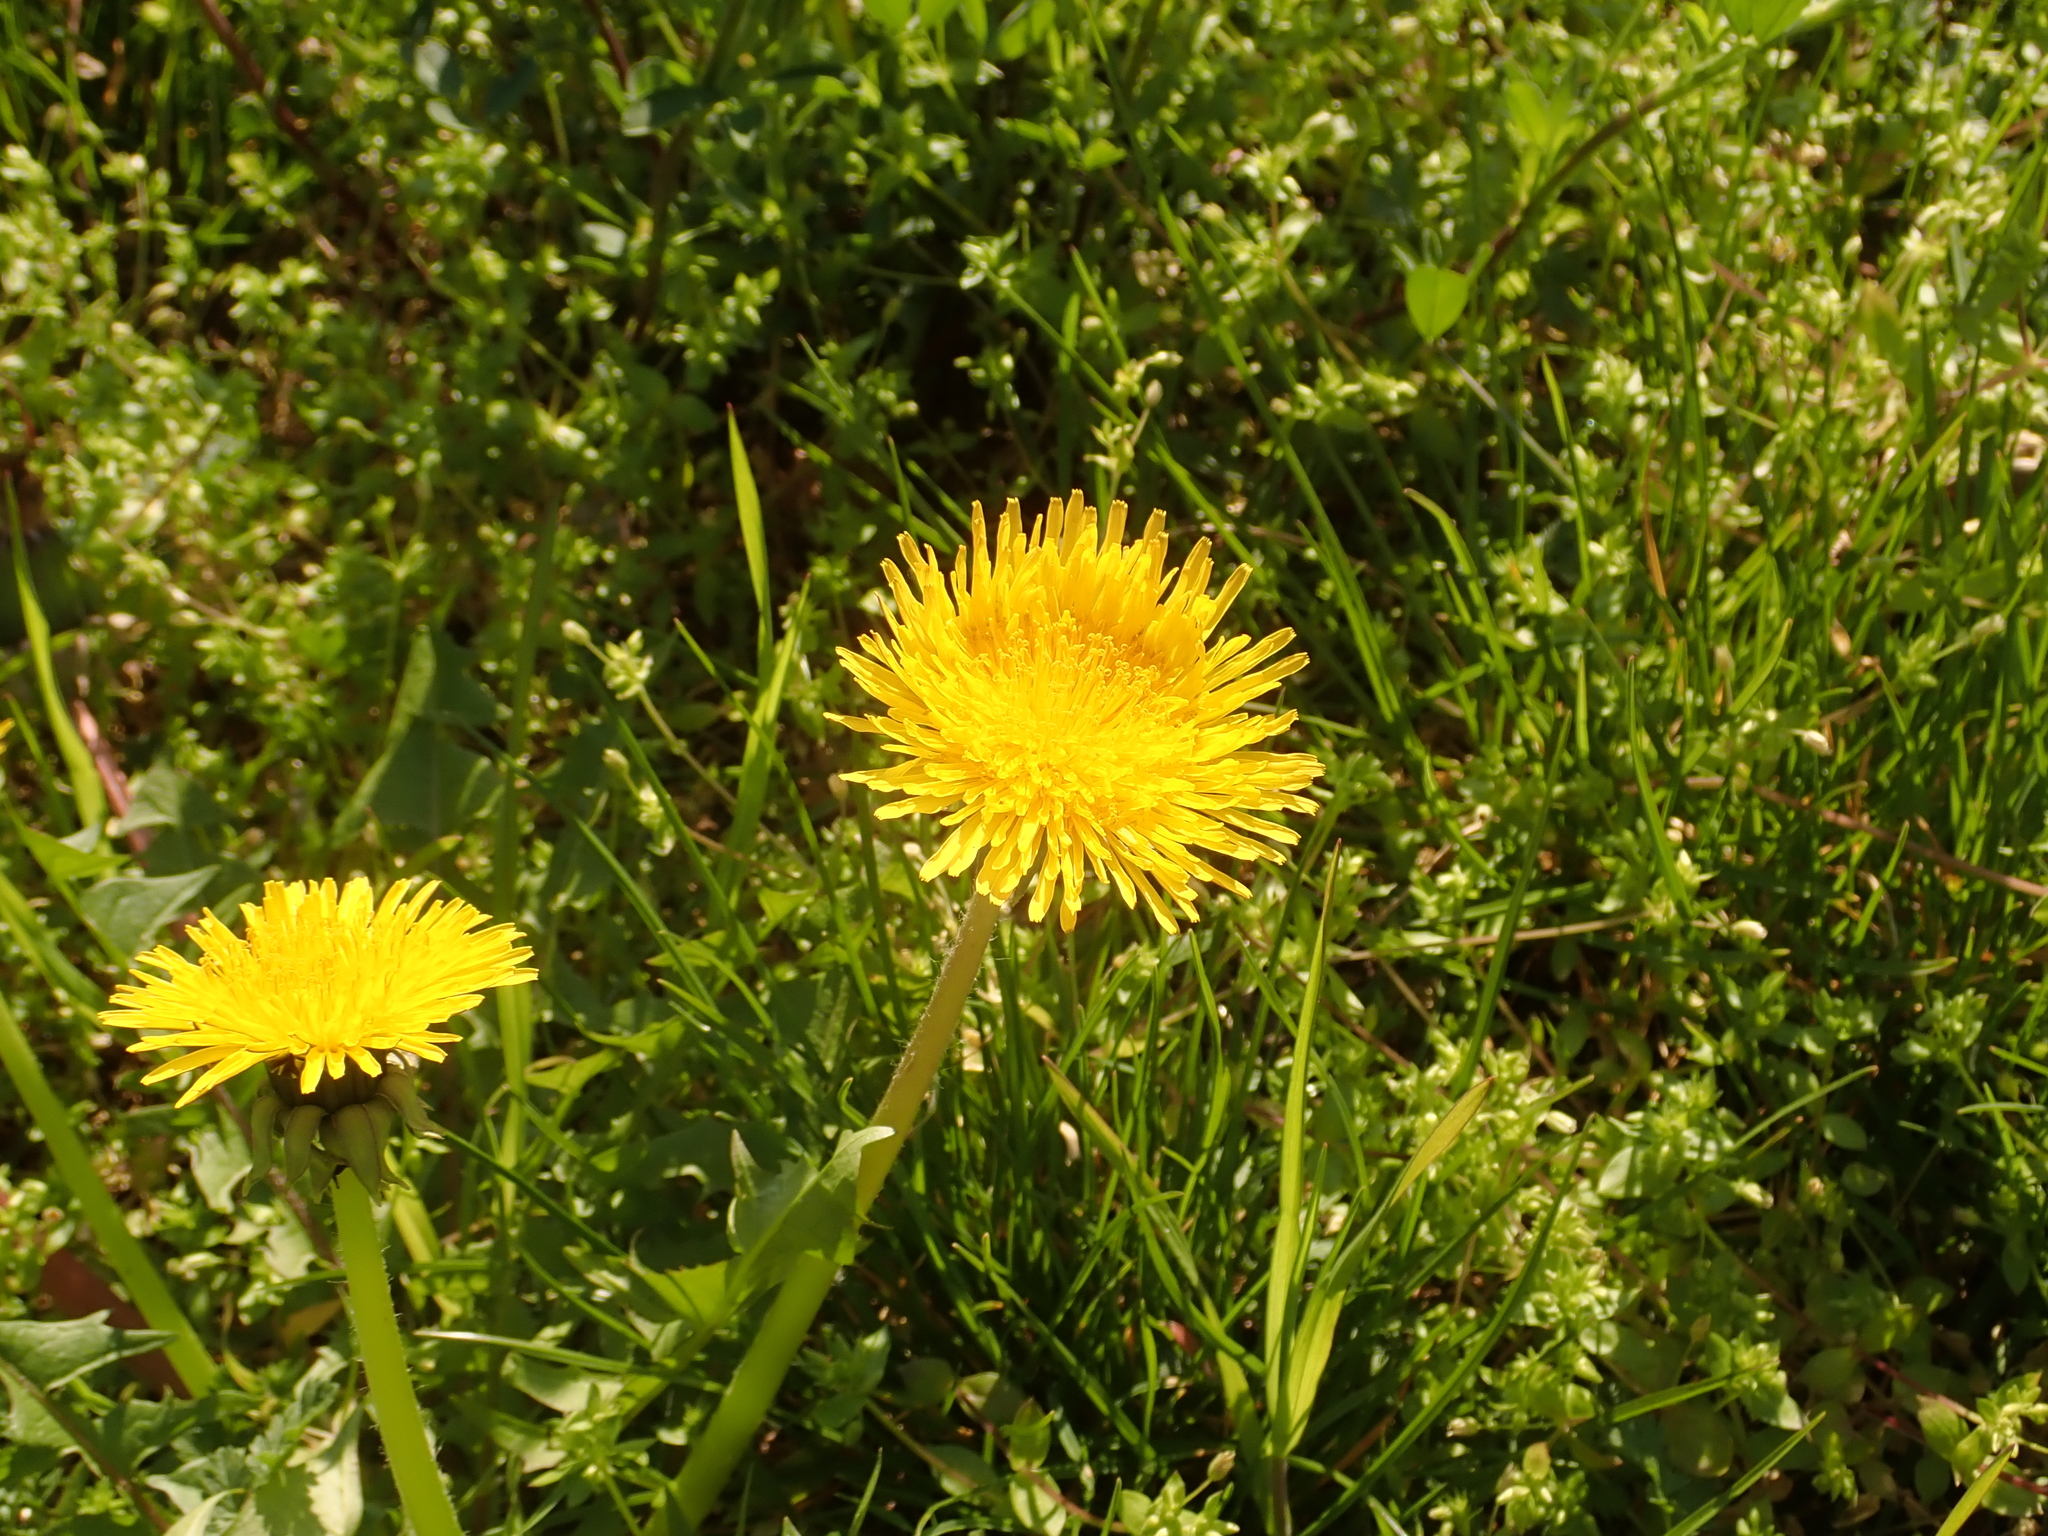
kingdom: Plantae
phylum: Tracheophyta
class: Magnoliopsida
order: Asterales
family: Asteraceae
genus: Taraxacum
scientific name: Taraxacum officinale
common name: Common dandelion
